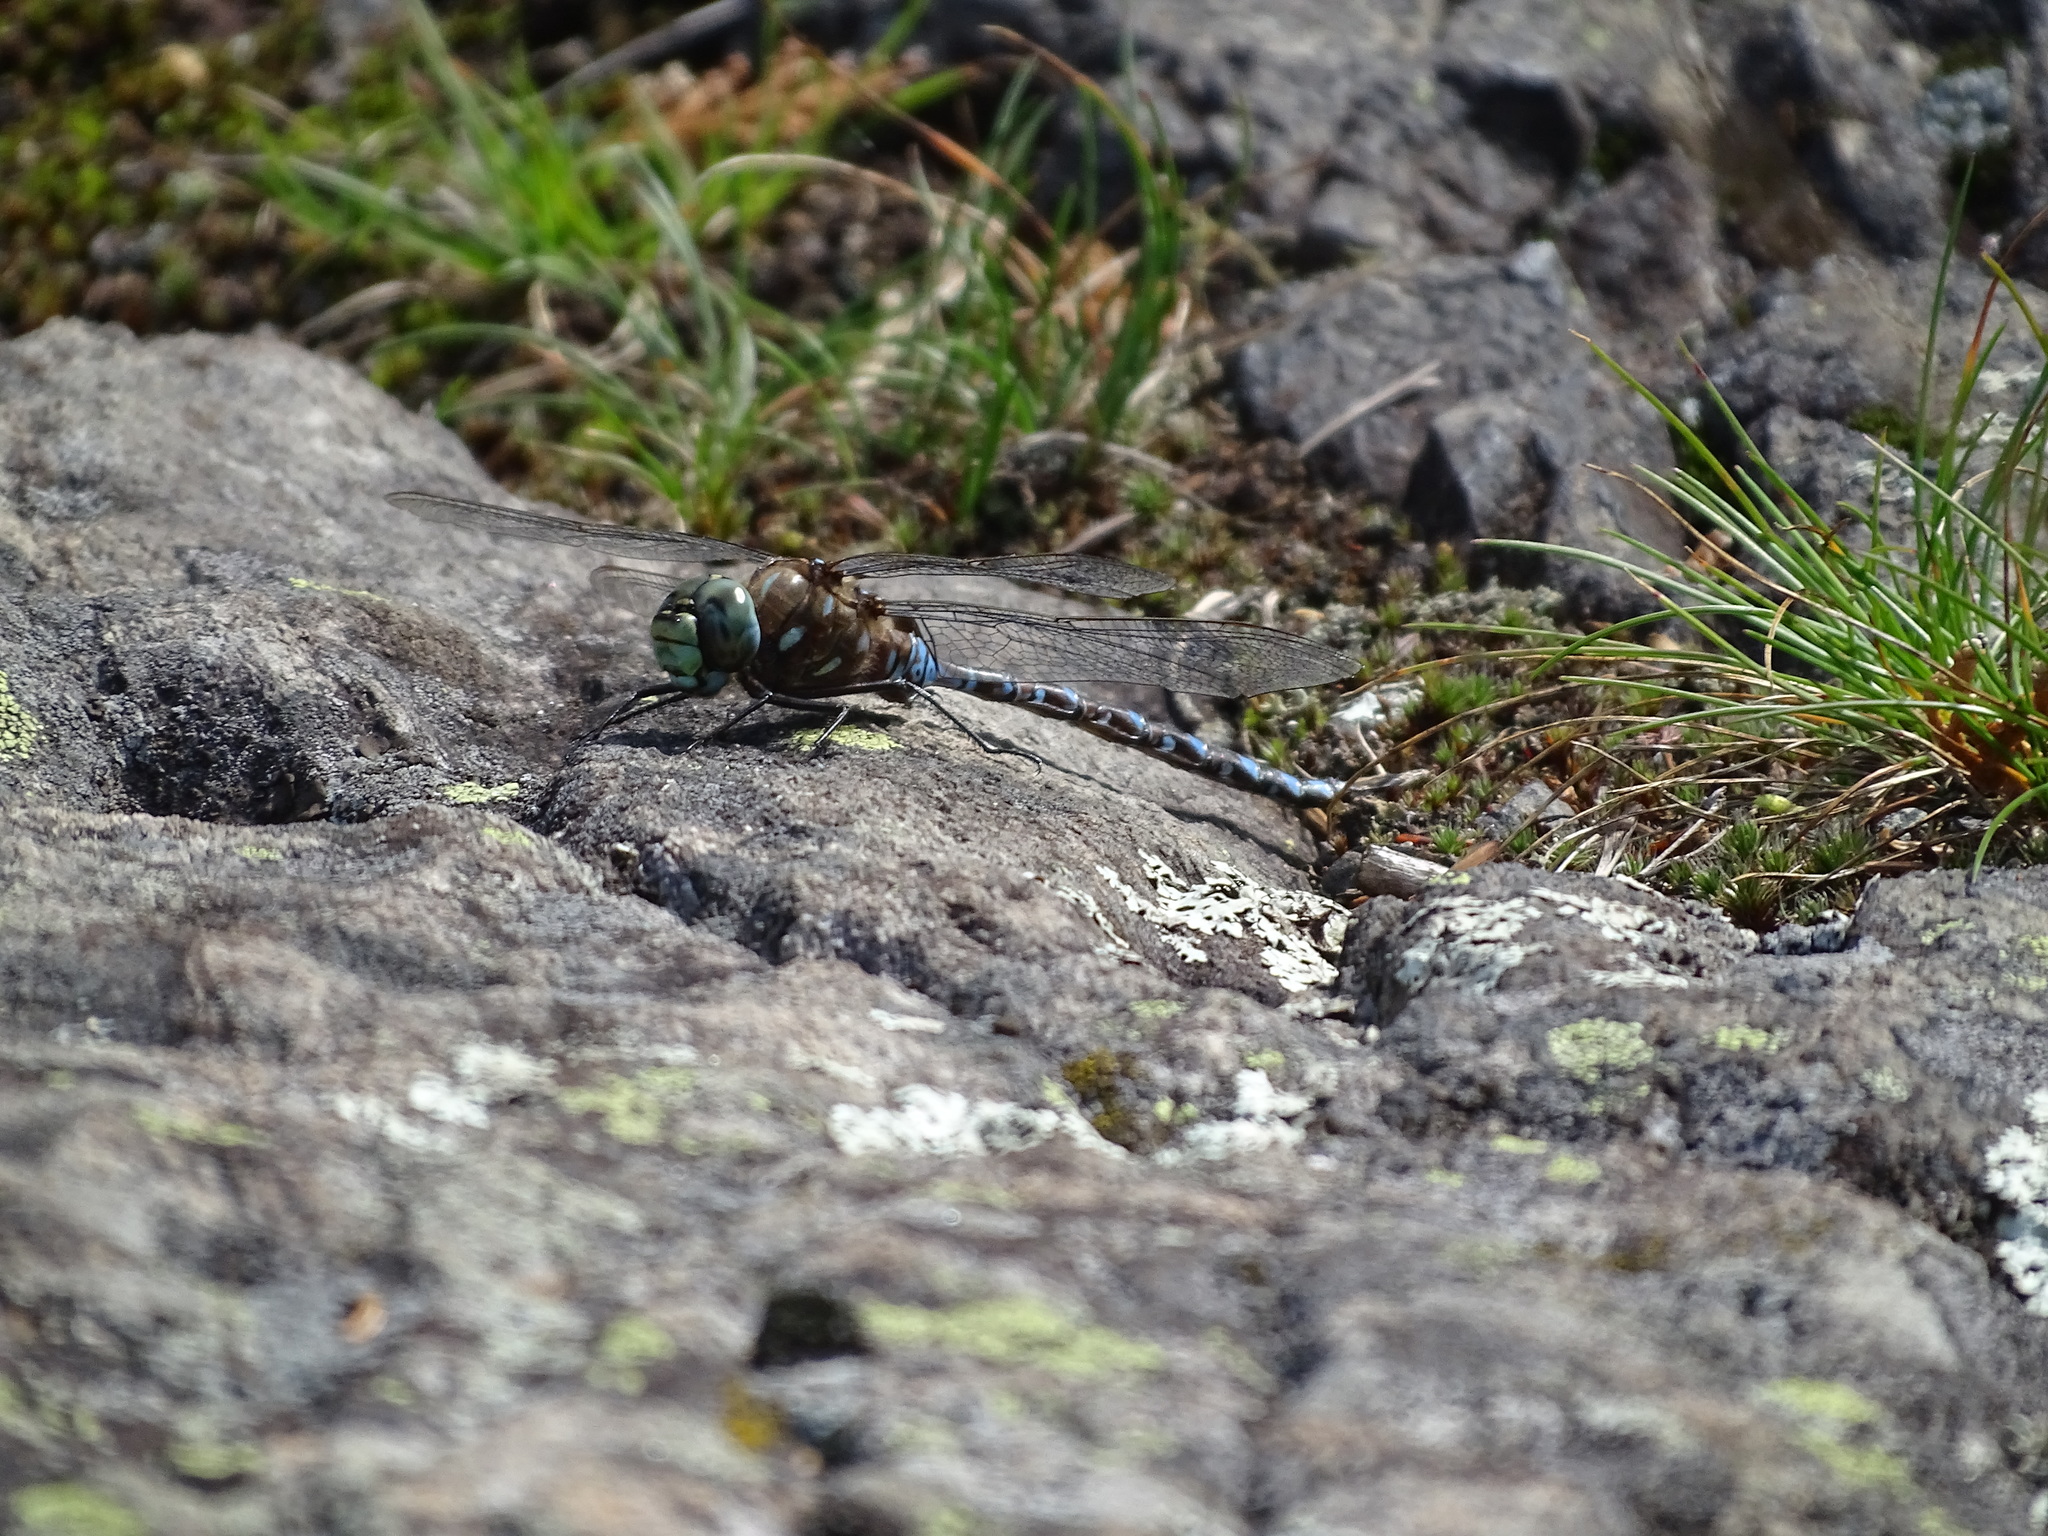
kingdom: Animalia
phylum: Arthropoda
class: Insecta
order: Odonata
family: Aeshnidae
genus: Aeshna
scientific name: Aeshna interrupta
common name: Variable darner
